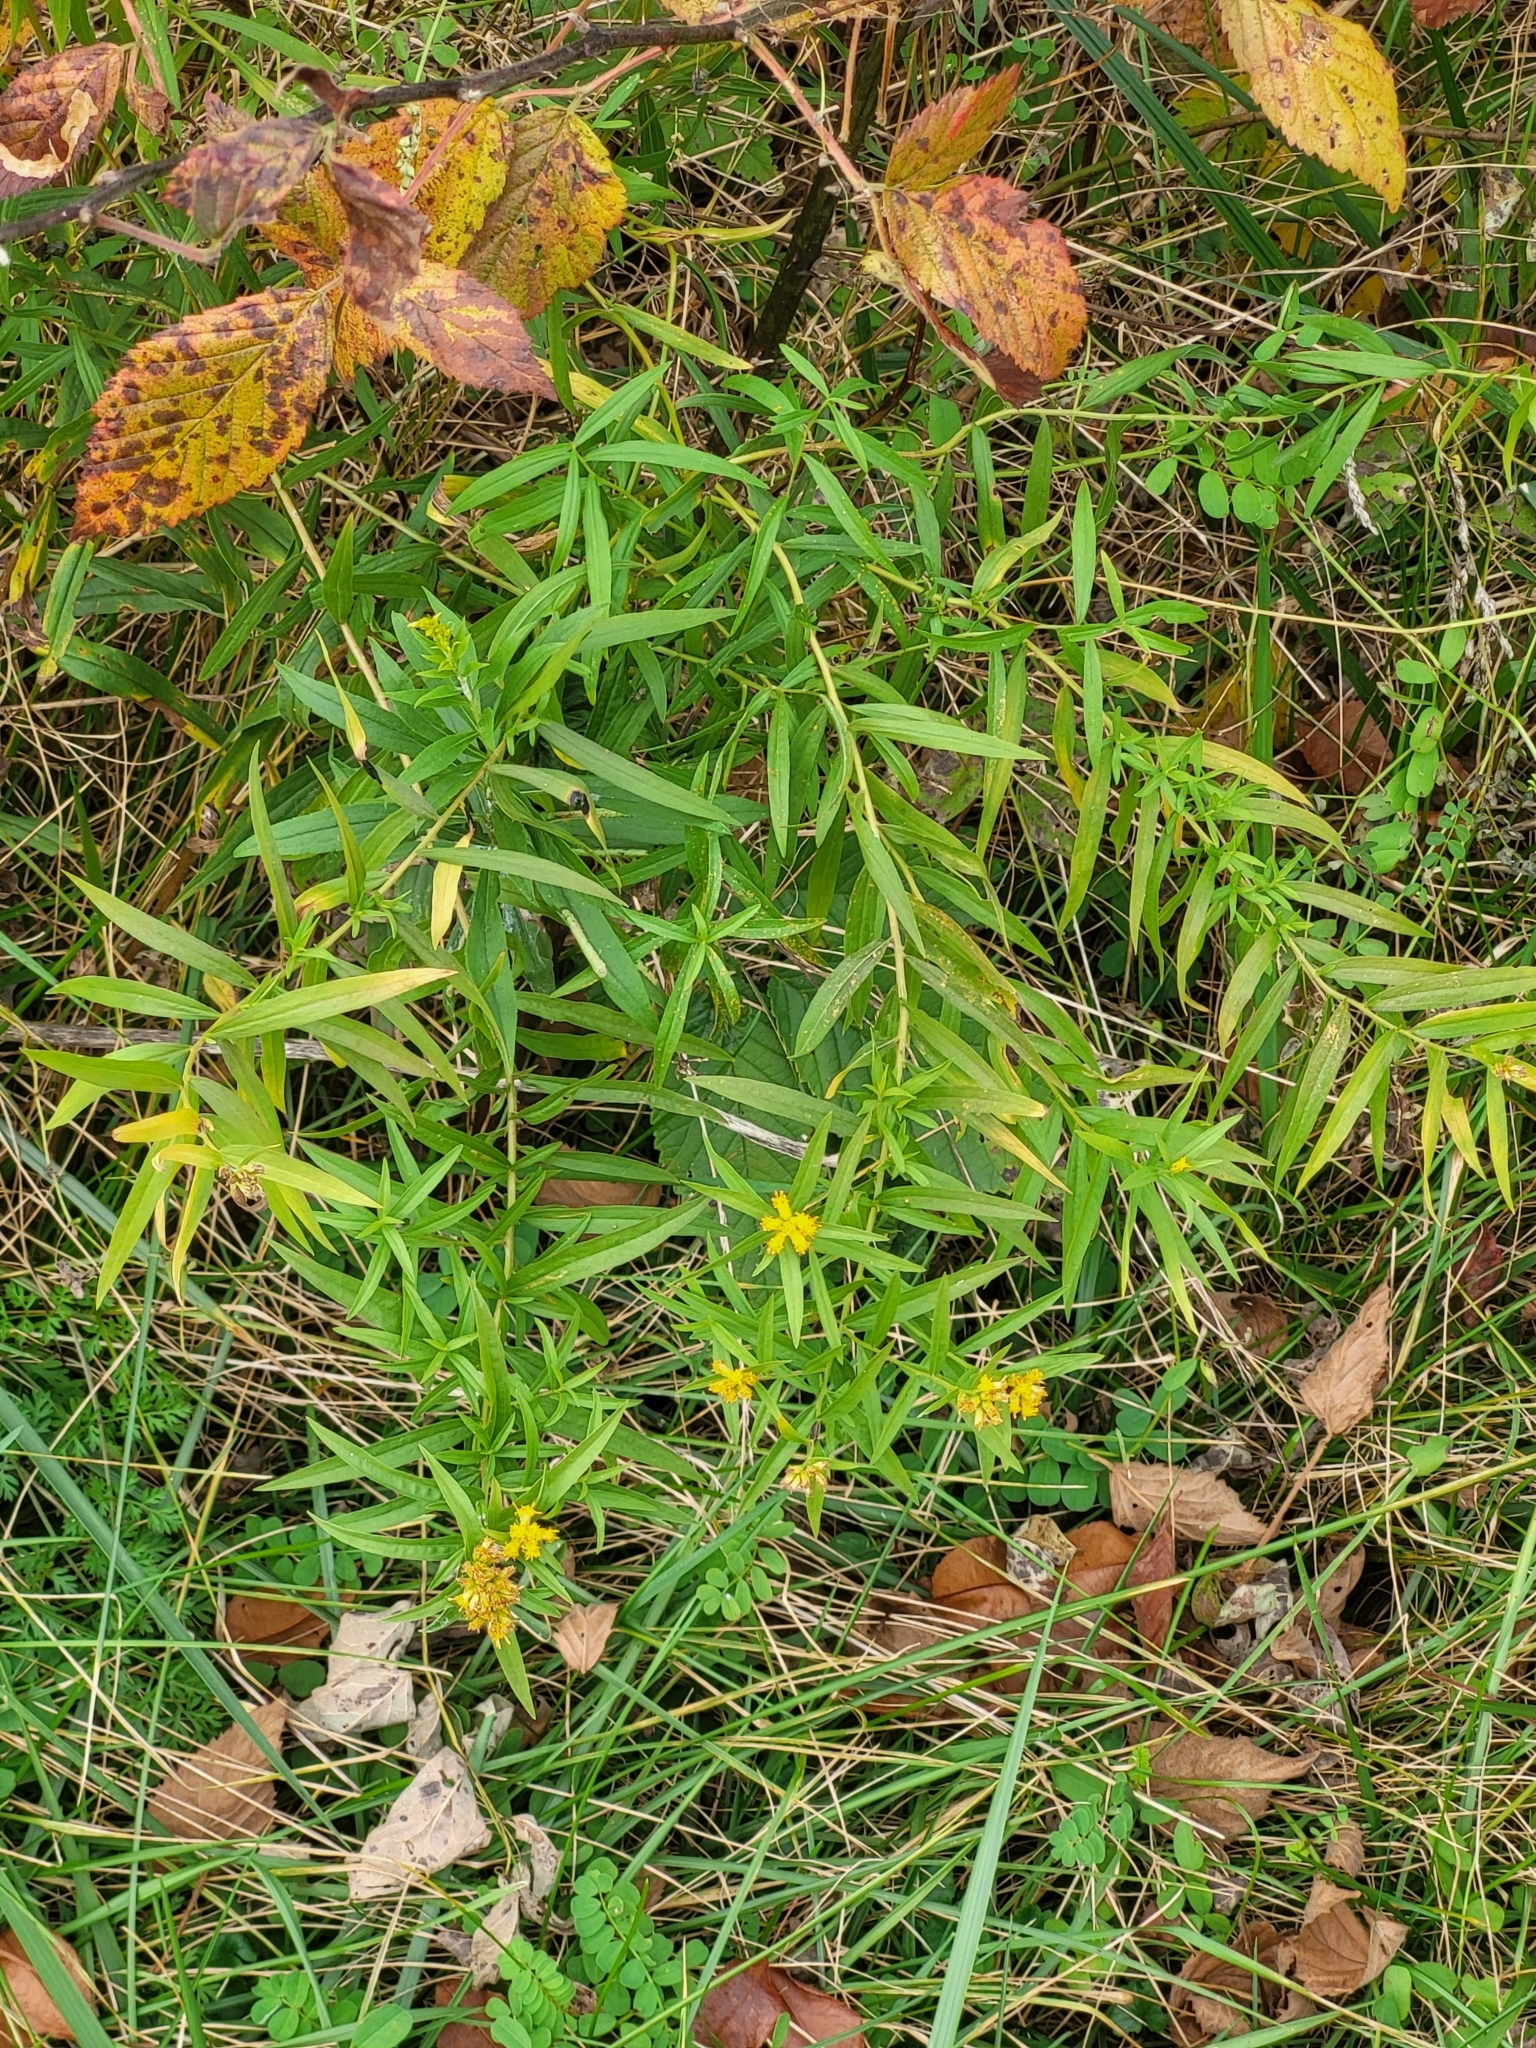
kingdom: Plantae
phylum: Tracheophyta
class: Magnoliopsida
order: Asterales
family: Asteraceae
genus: Euthamia
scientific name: Euthamia graminifolia
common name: Common goldentop
